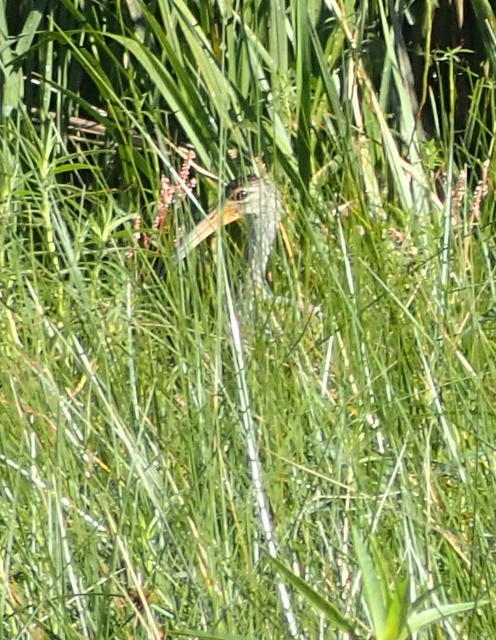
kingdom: Animalia
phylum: Chordata
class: Aves
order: Gruiformes
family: Aramidae
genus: Aramus
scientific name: Aramus guarauna
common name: Limpkin
